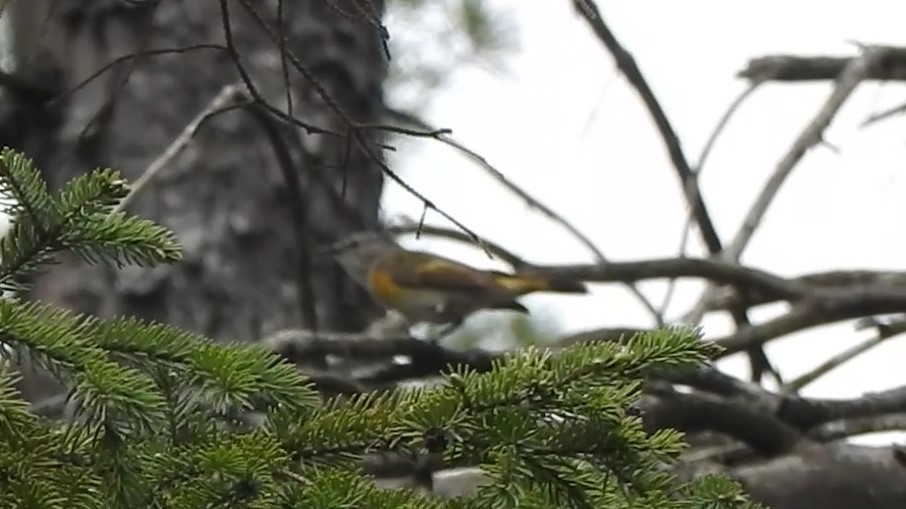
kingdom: Animalia
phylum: Chordata
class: Aves
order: Passeriformes
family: Parulidae
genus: Setophaga
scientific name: Setophaga ruticilla
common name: American redstart
